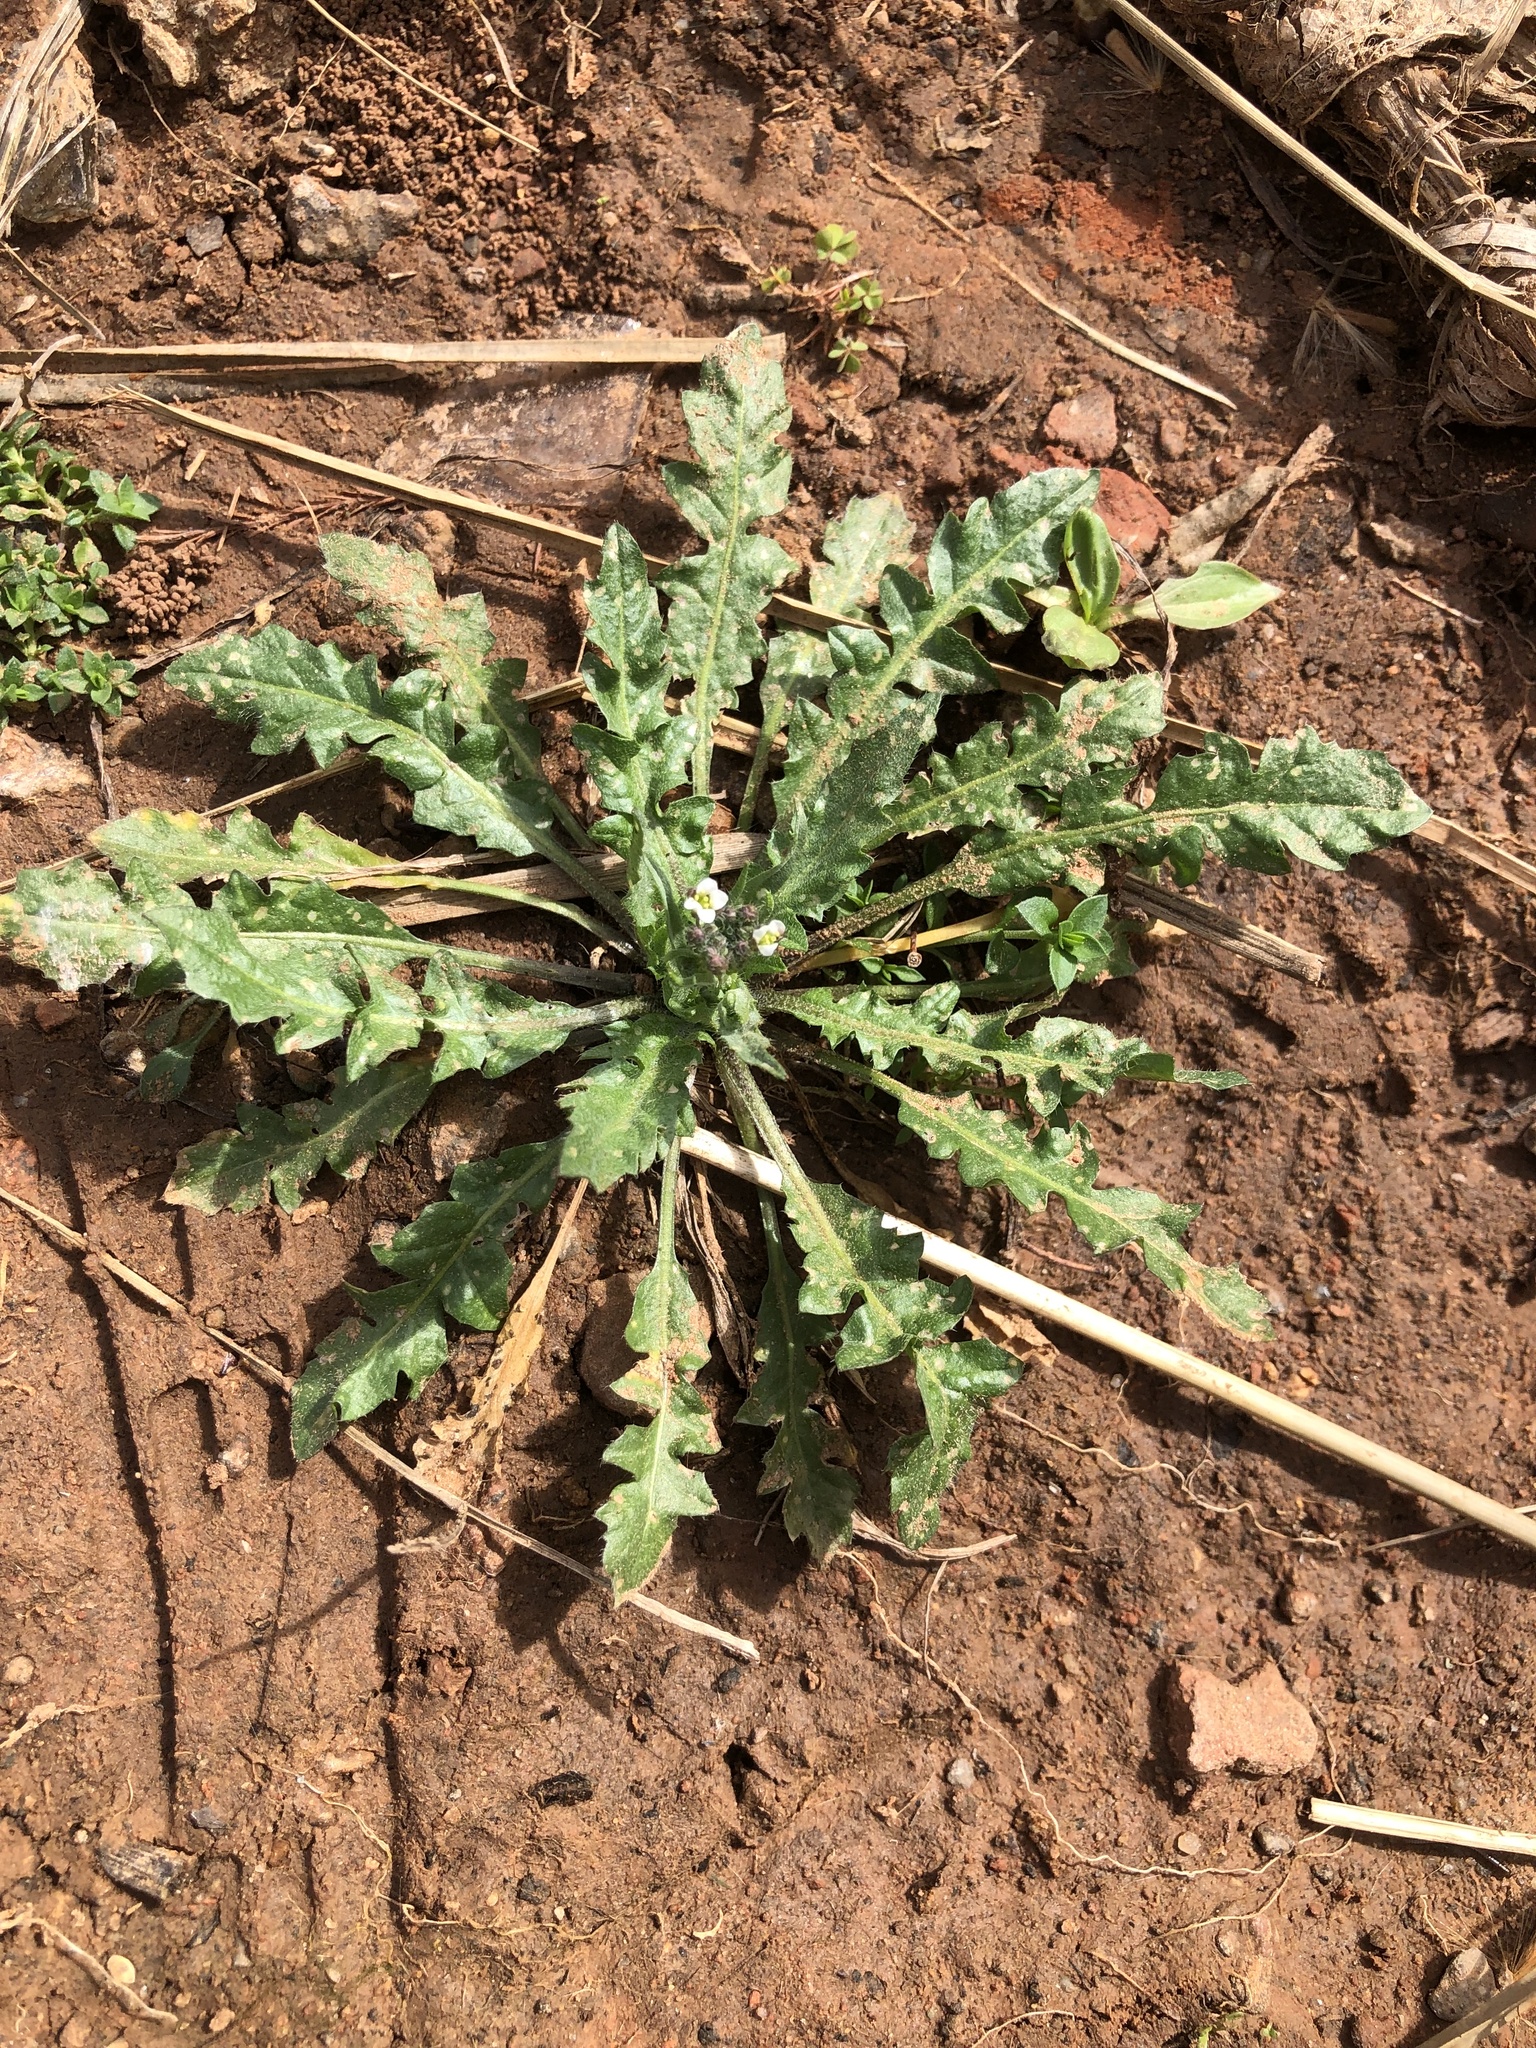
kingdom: Plantae
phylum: Tracheophyta
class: Magnoliopsida
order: Brassicales
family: Brassicaceae
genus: Capsella
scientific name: Capsella bursa-pastoris
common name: Shepherd's purse
